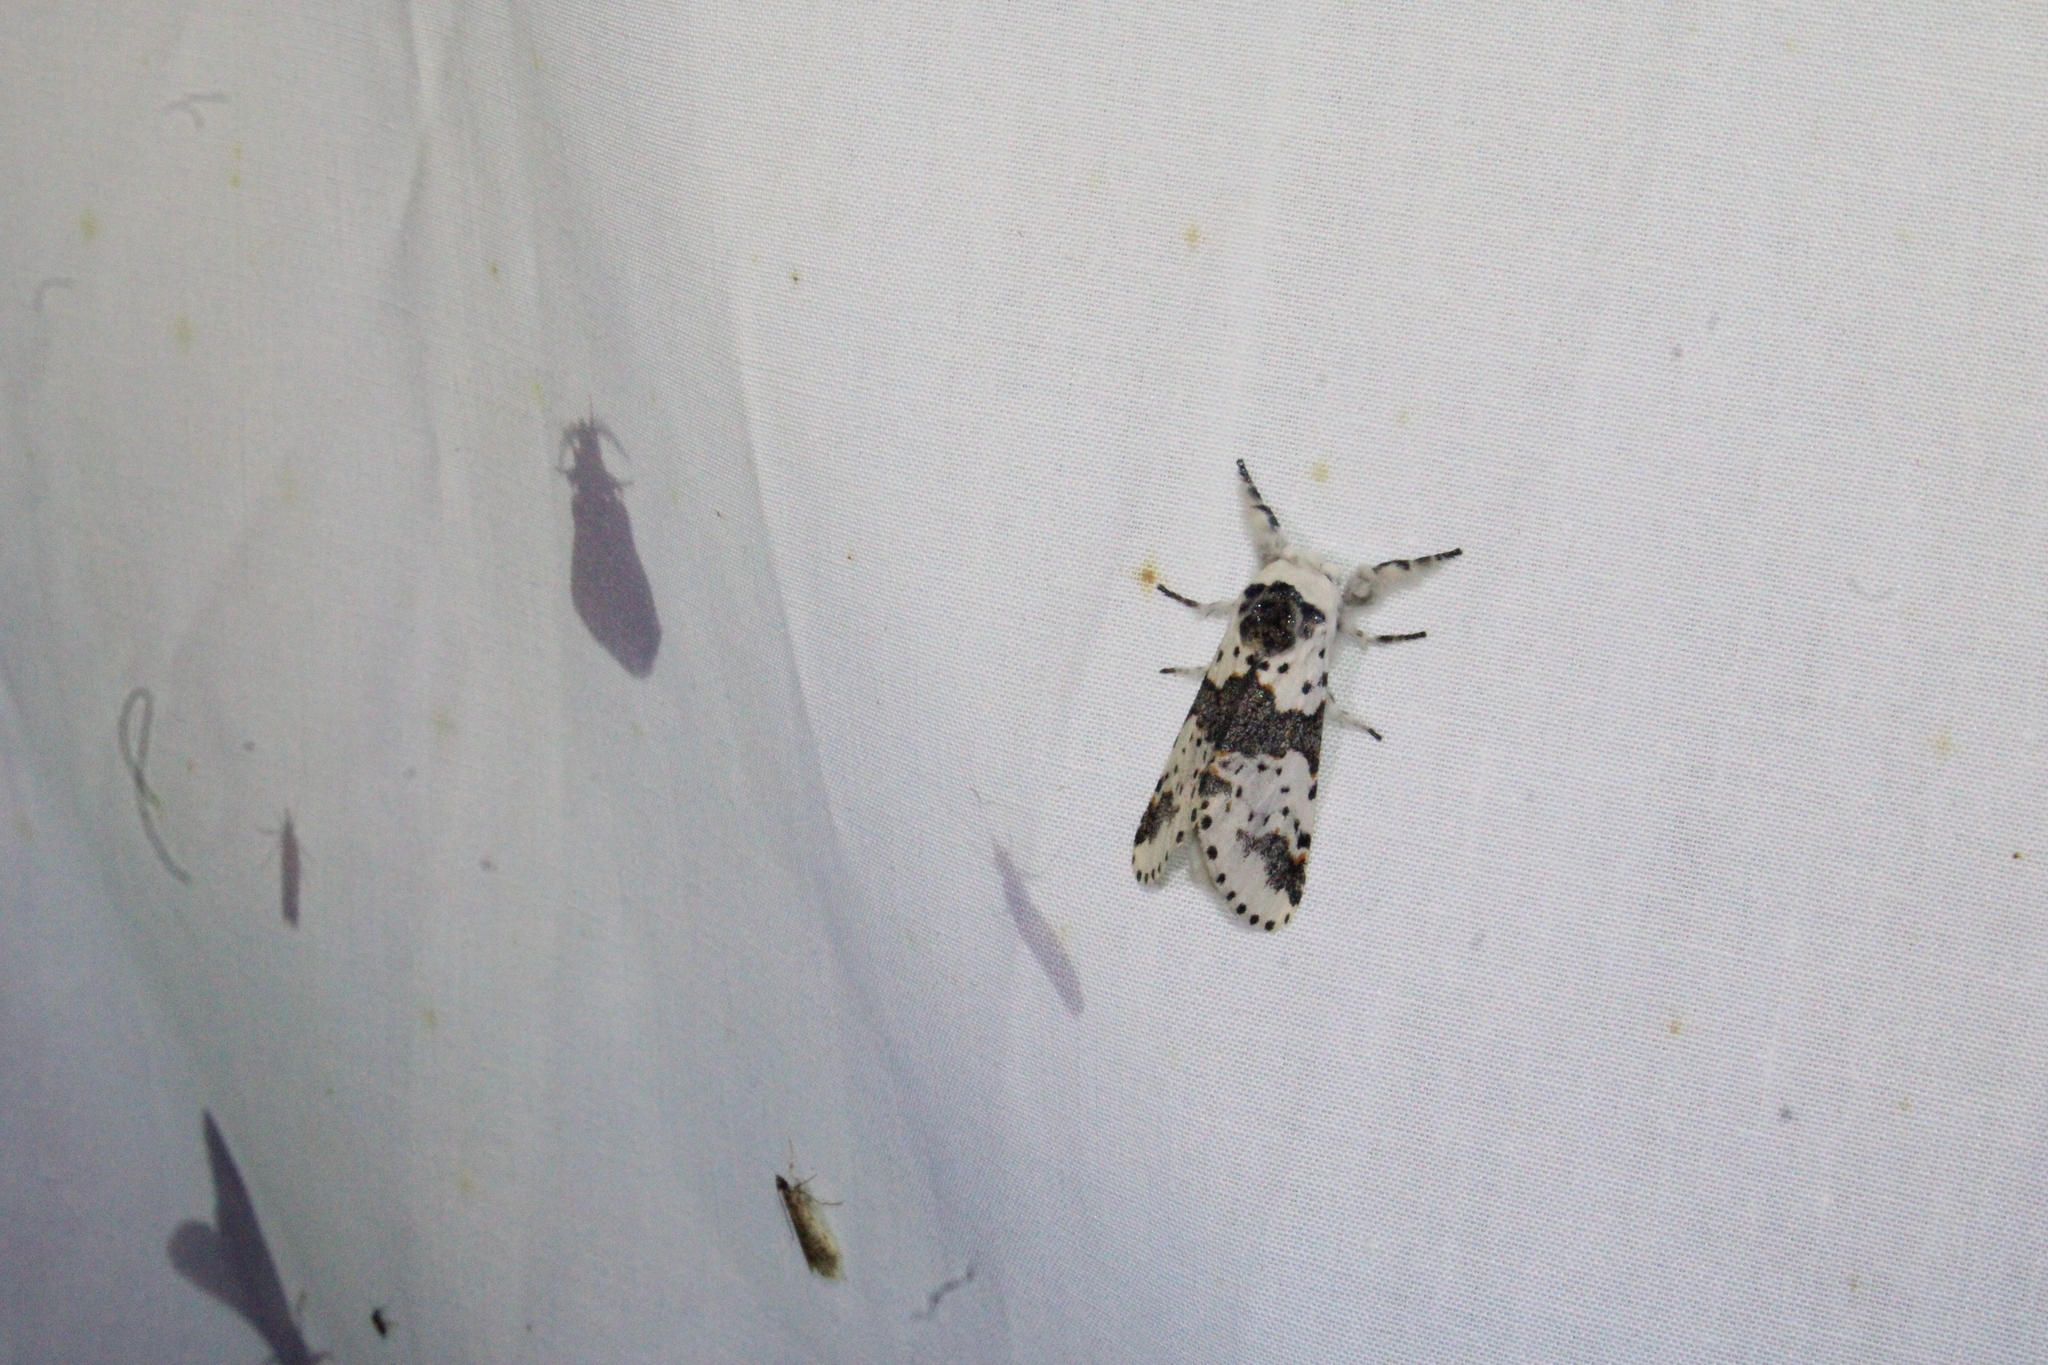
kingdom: Animalia
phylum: Arthropoda
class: Insecta
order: Lepidoptera
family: Notodontidae
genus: Furcula
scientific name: Furcula borealis
